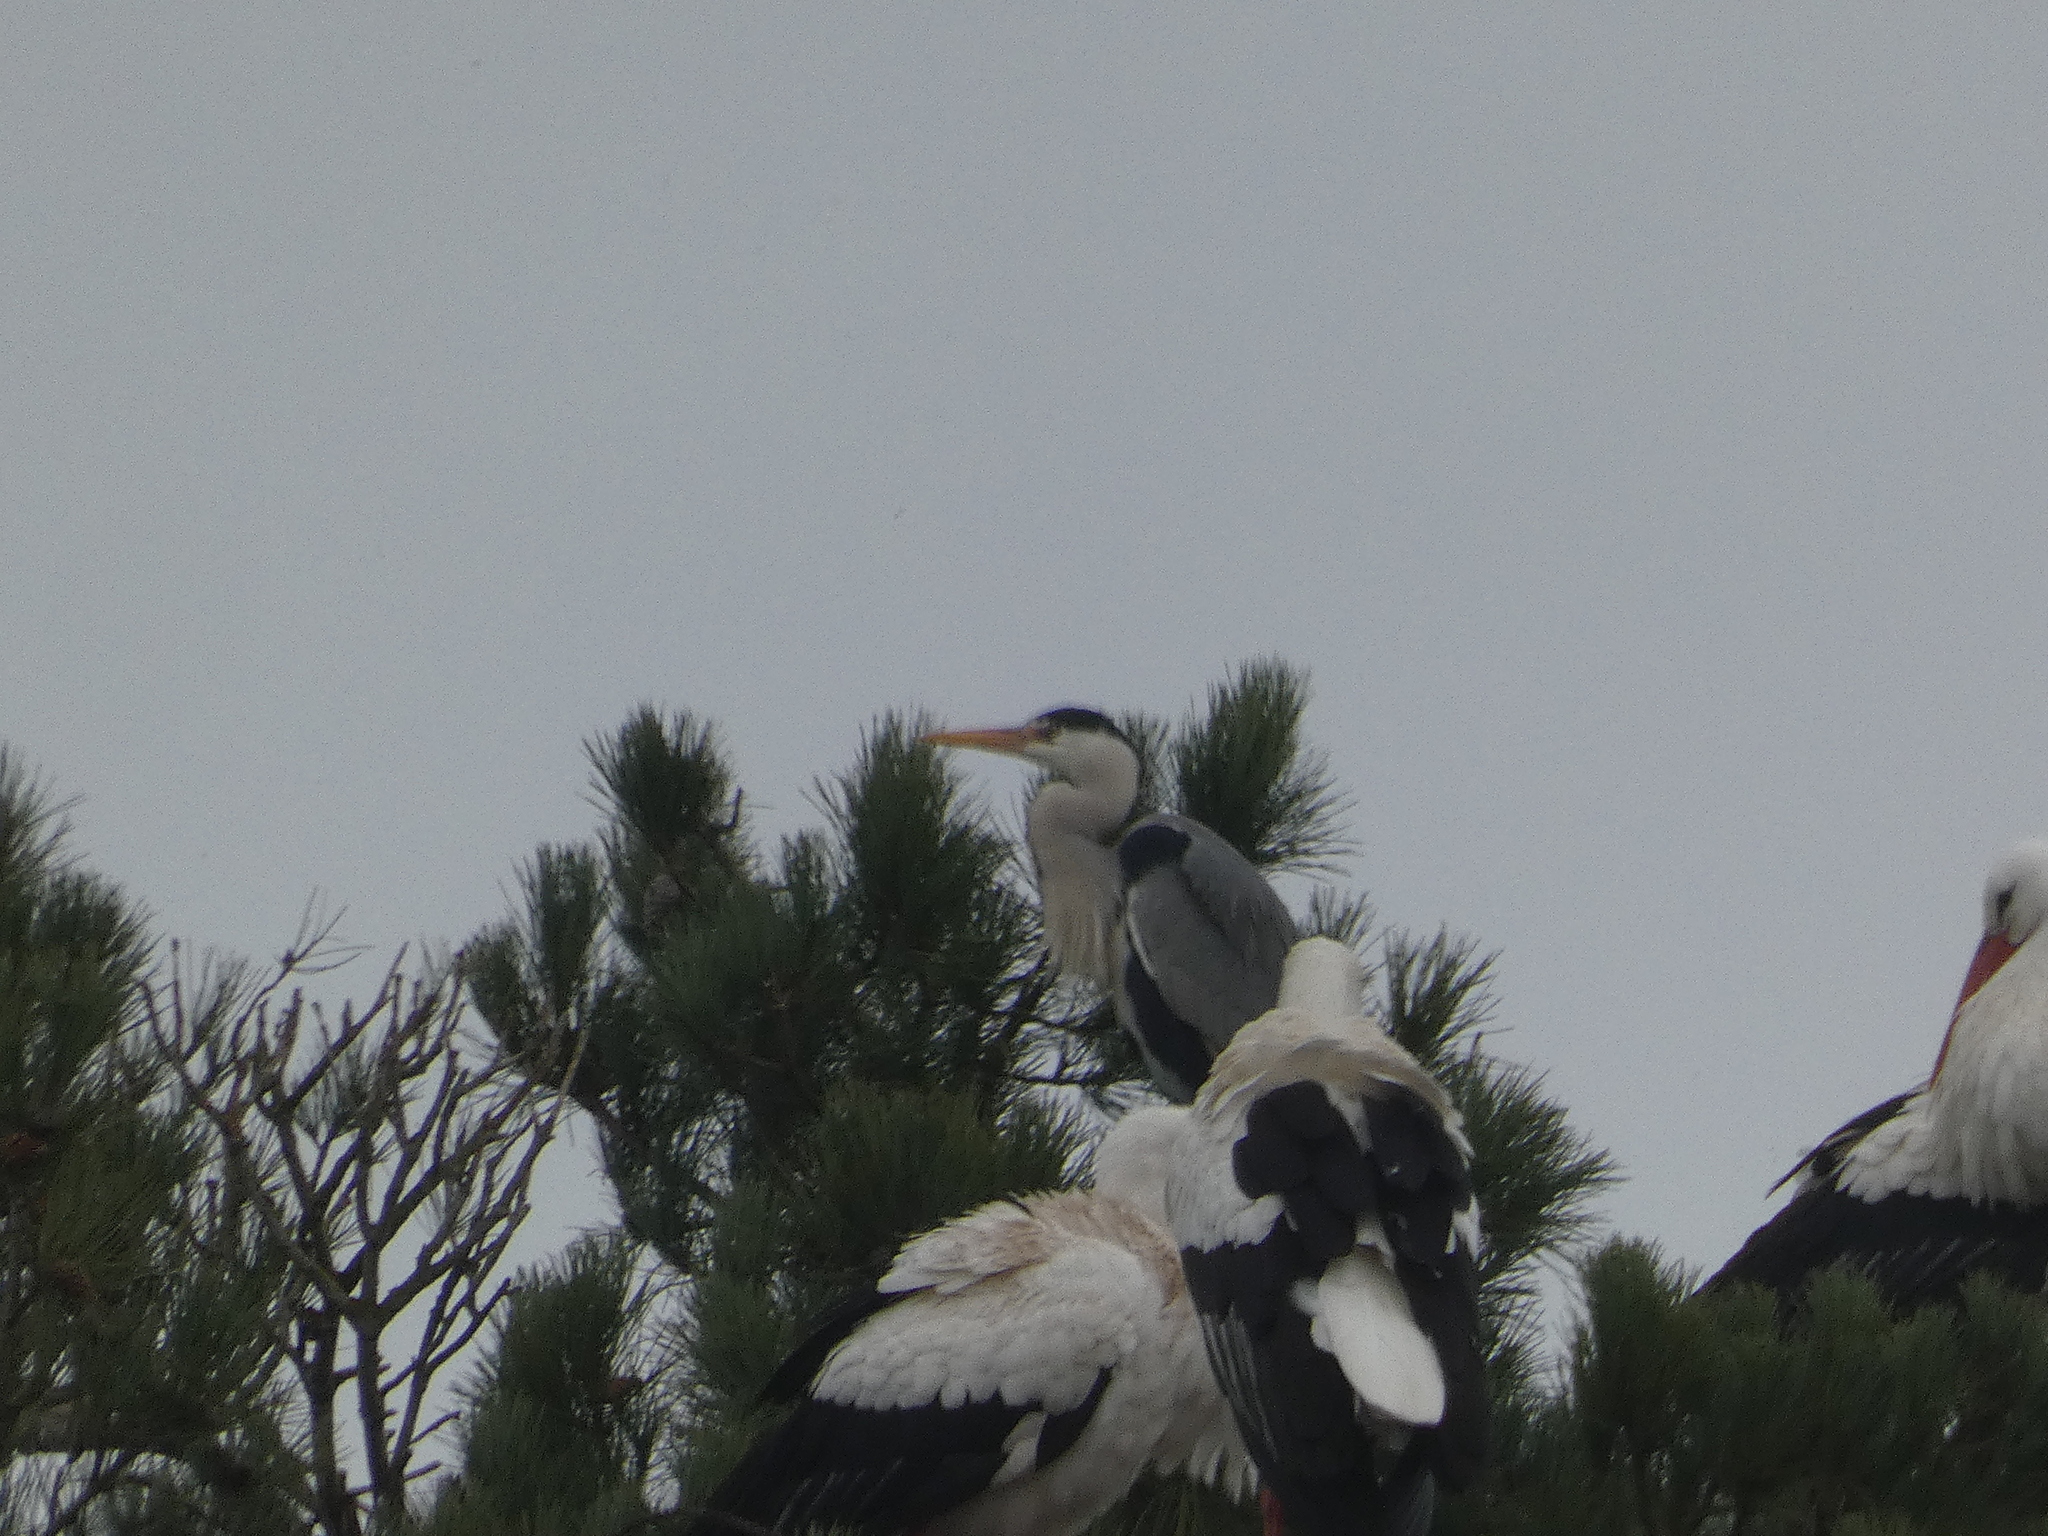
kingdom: Animalia
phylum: Chordata
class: Aves
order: Pelecaniformes
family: Ardeidae
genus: Ardea
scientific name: Ardea cinerea
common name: Grey heron
